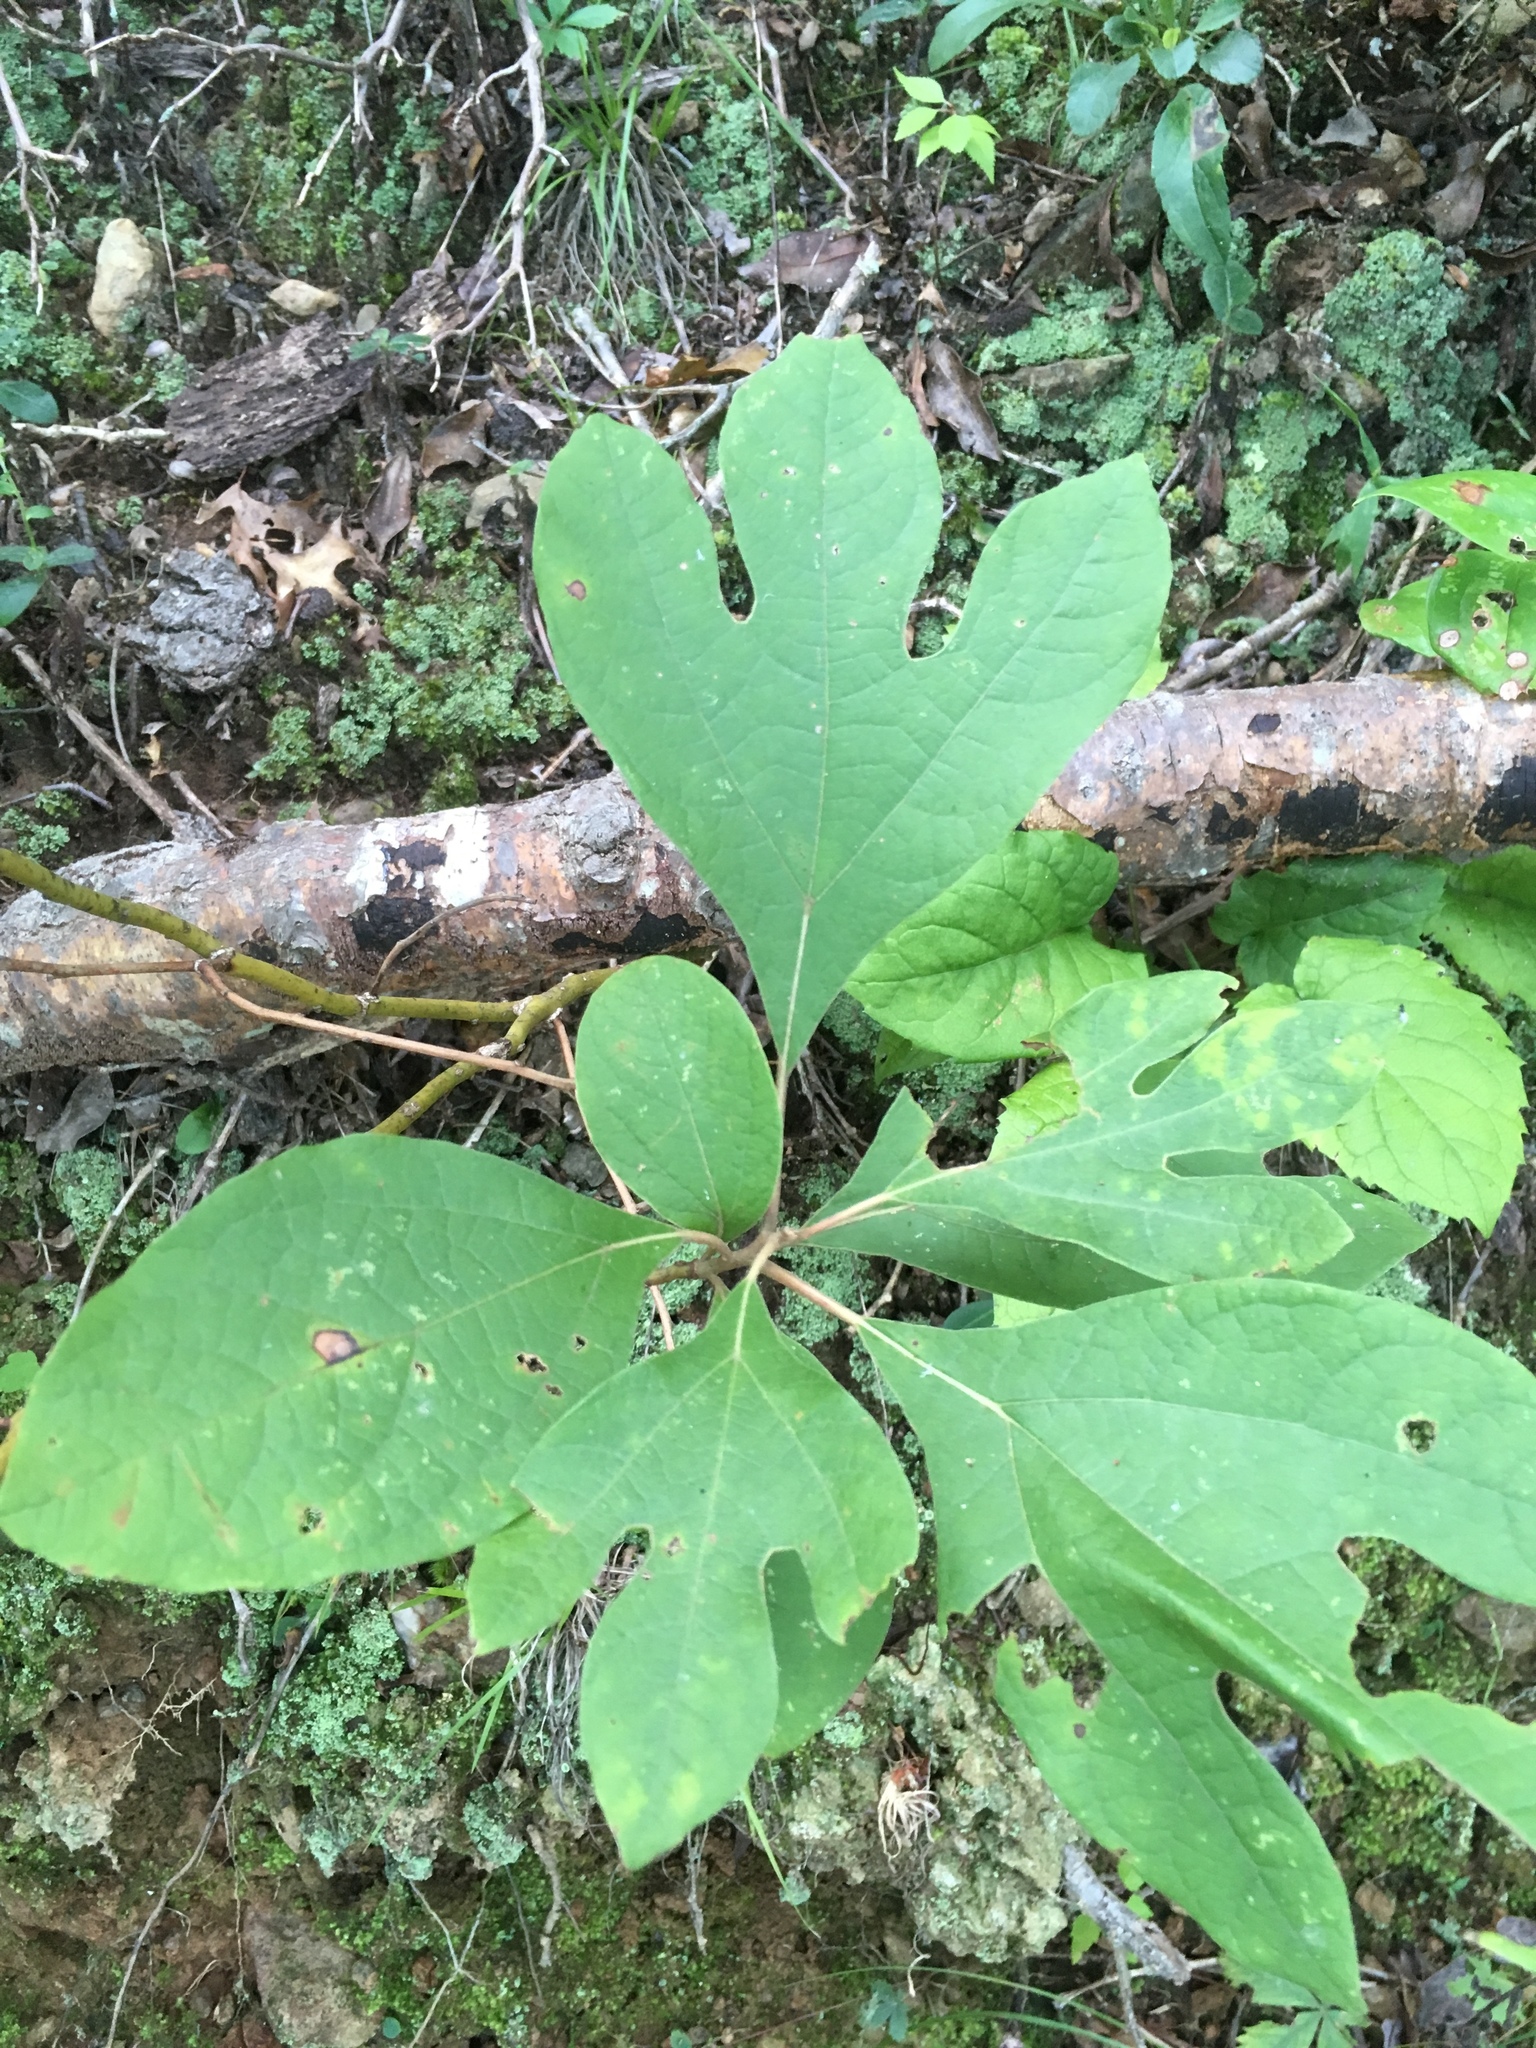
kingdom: Plantae
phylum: Tracheophyta
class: Magnoliopsida
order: Laurales
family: Lauraceae
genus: Sassafras
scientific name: Sassafras albidum
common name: Sassafras
